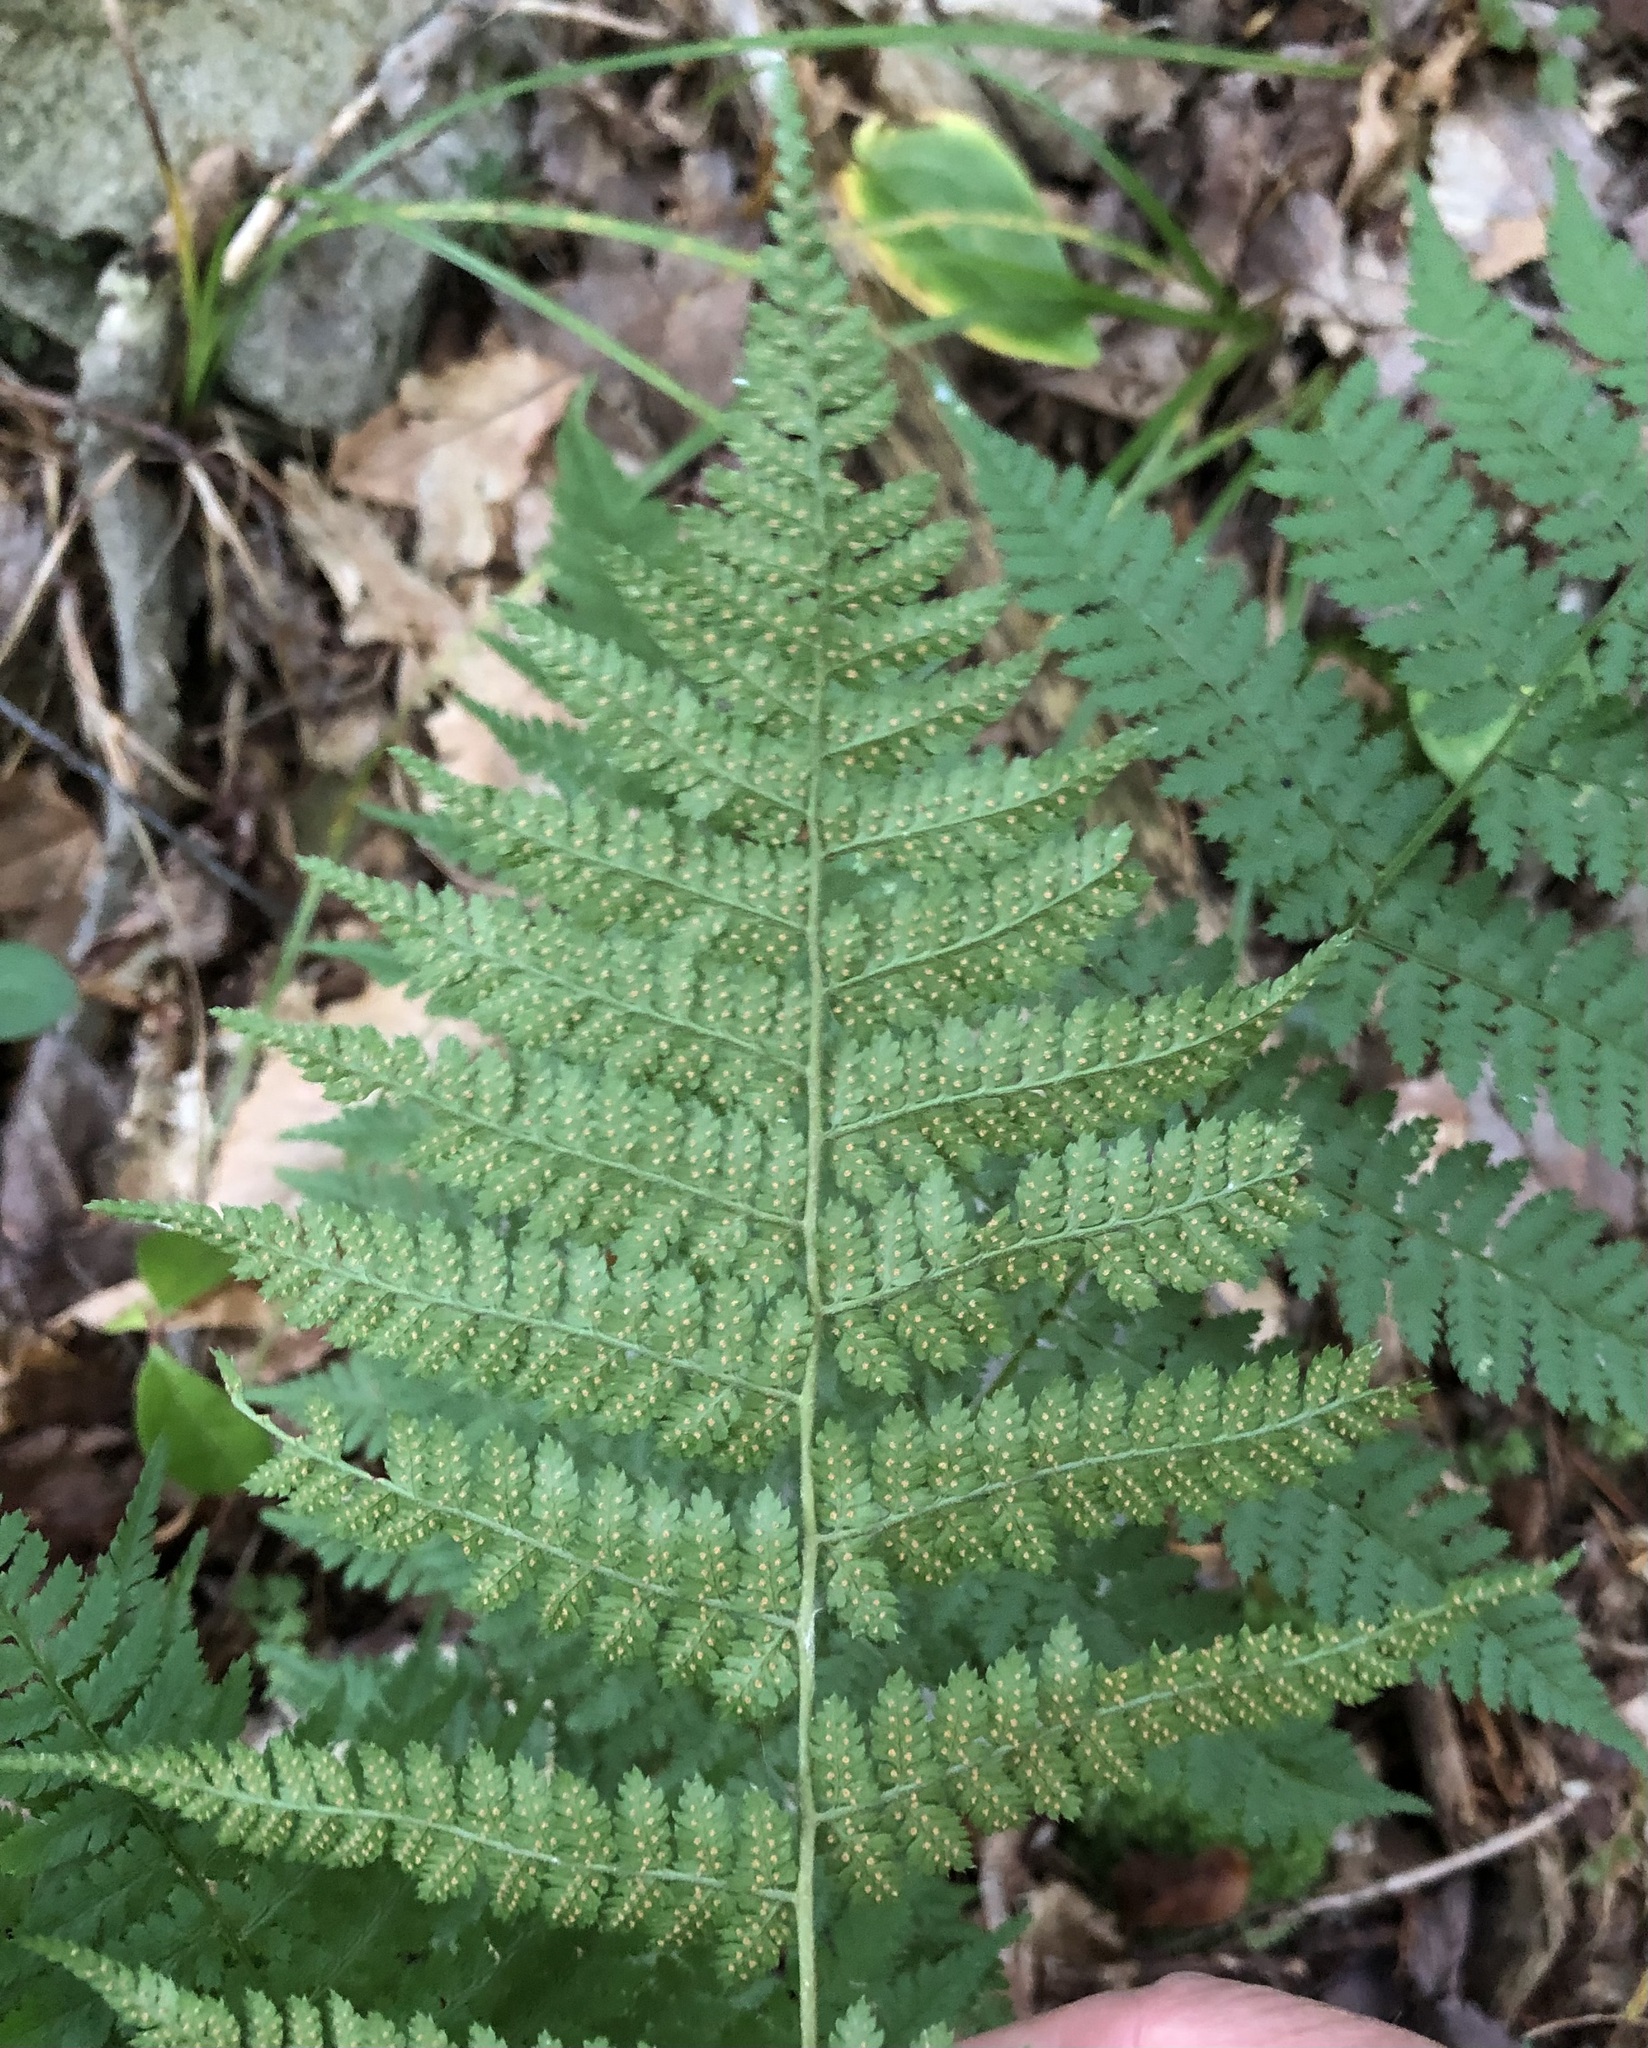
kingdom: Plantae
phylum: Tracheophyta
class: Polypodiopsida
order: Polypodiales
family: Dryopteridaceae
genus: Dryopteris
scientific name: Dryopteris intermedia
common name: Evergreen wood fern
